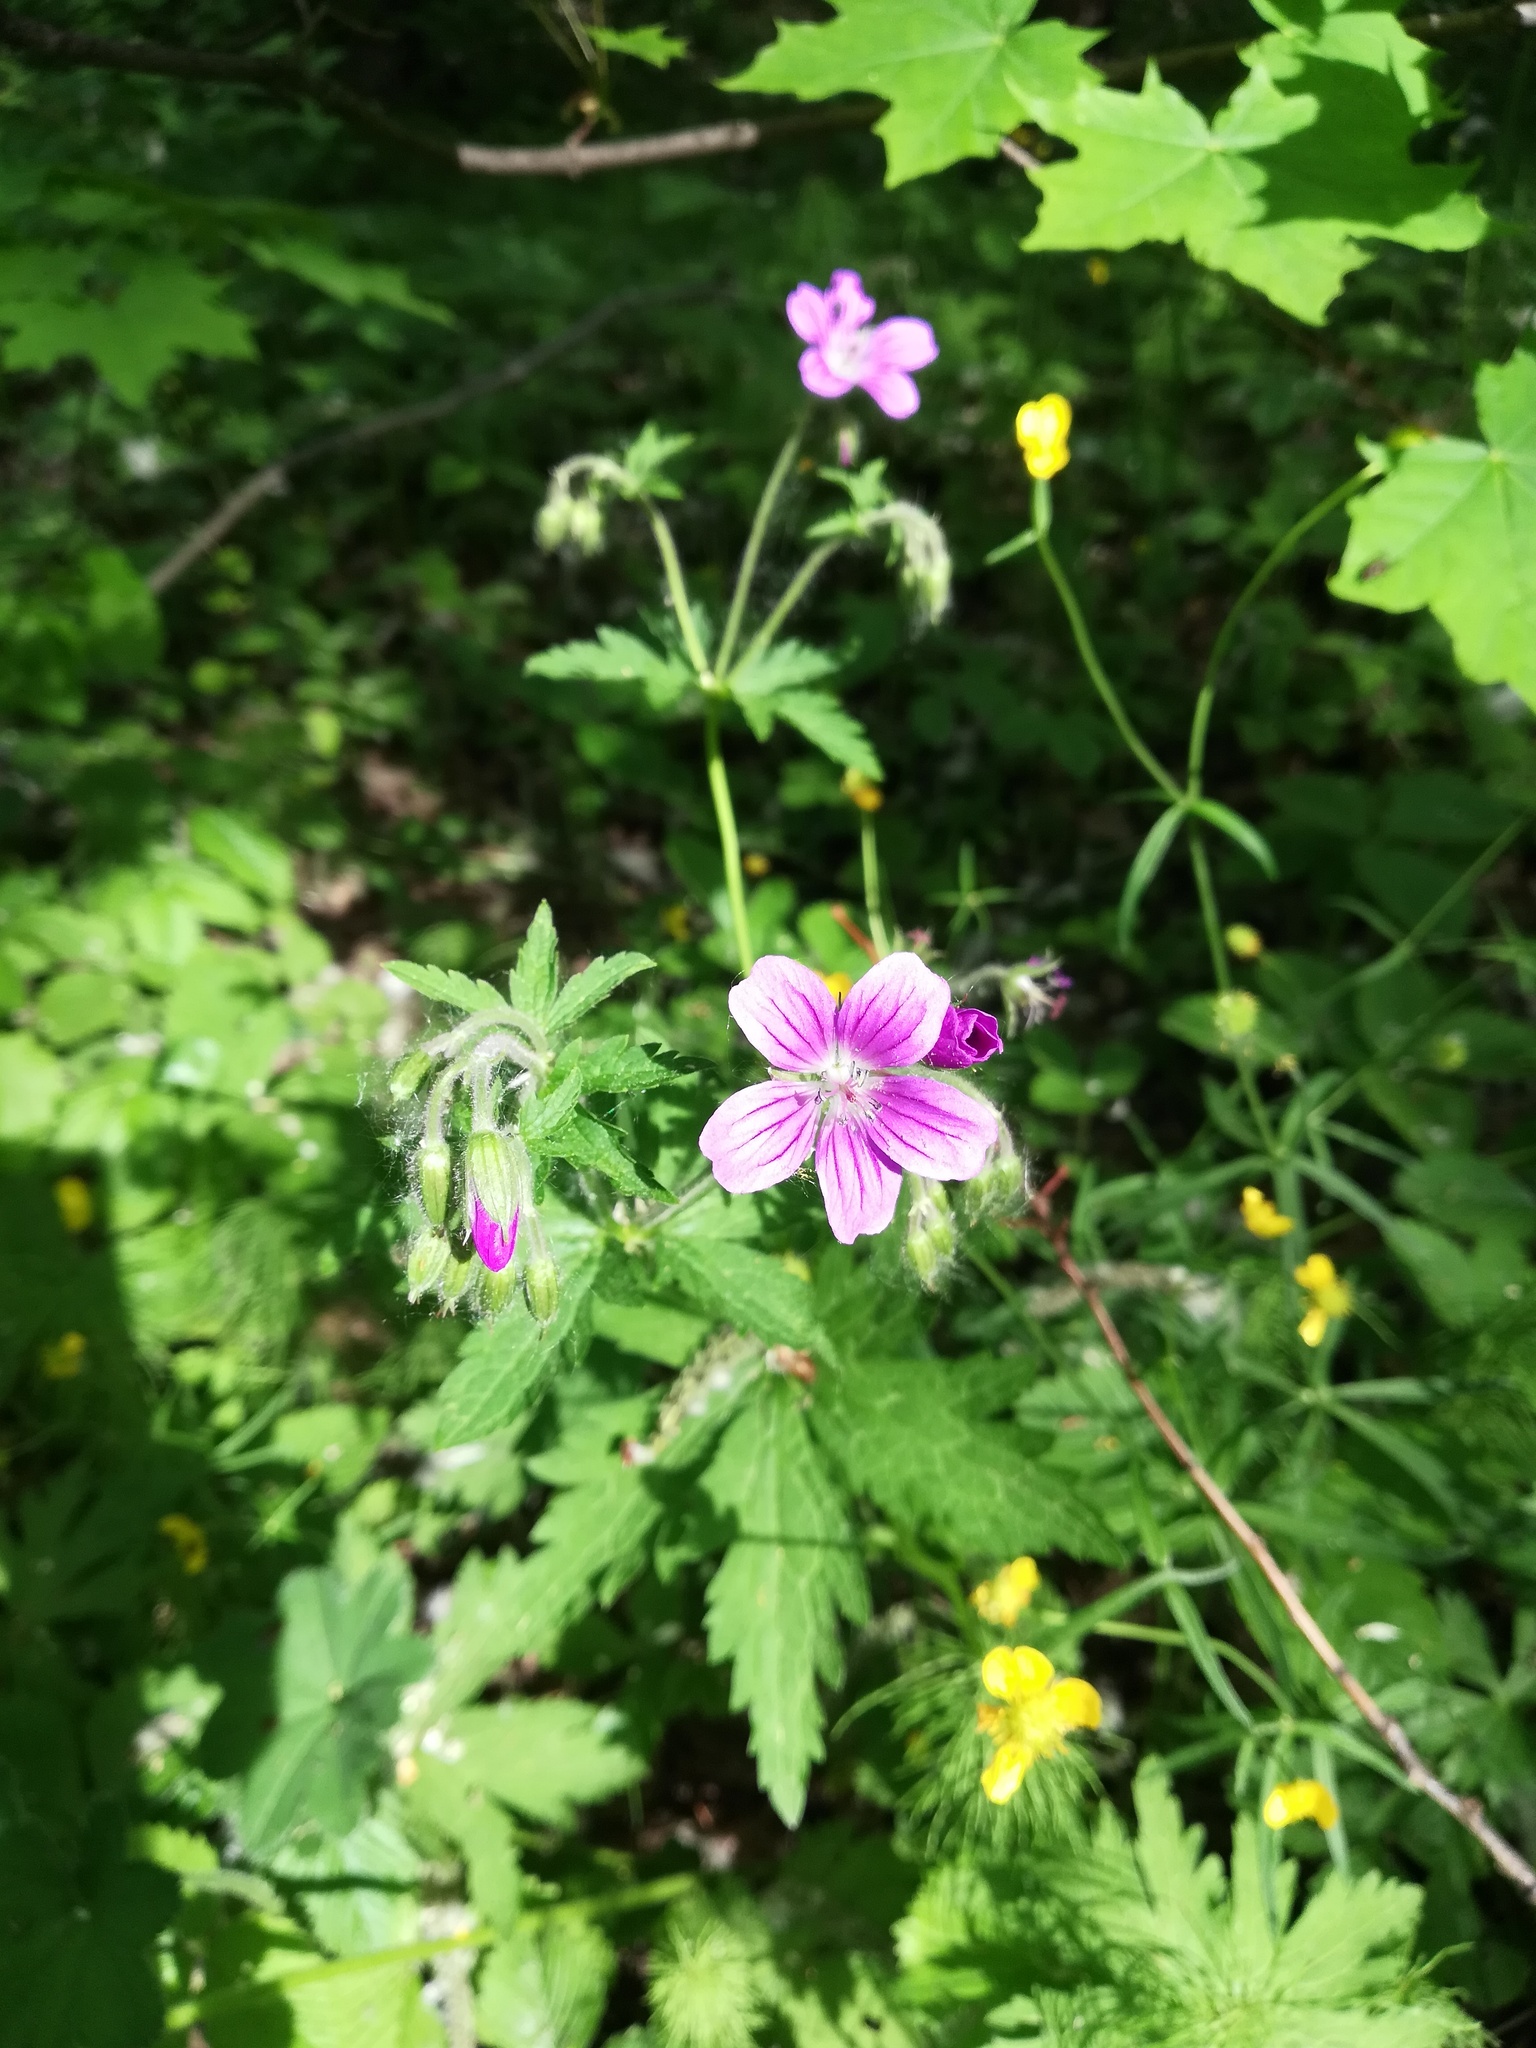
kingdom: Plantae
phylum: Tracheophyta
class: Magnoliopsida
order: Geraniales
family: Geraniaceae
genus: Geranium
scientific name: Geranium sylvaticum
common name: Wood crane's-bill
